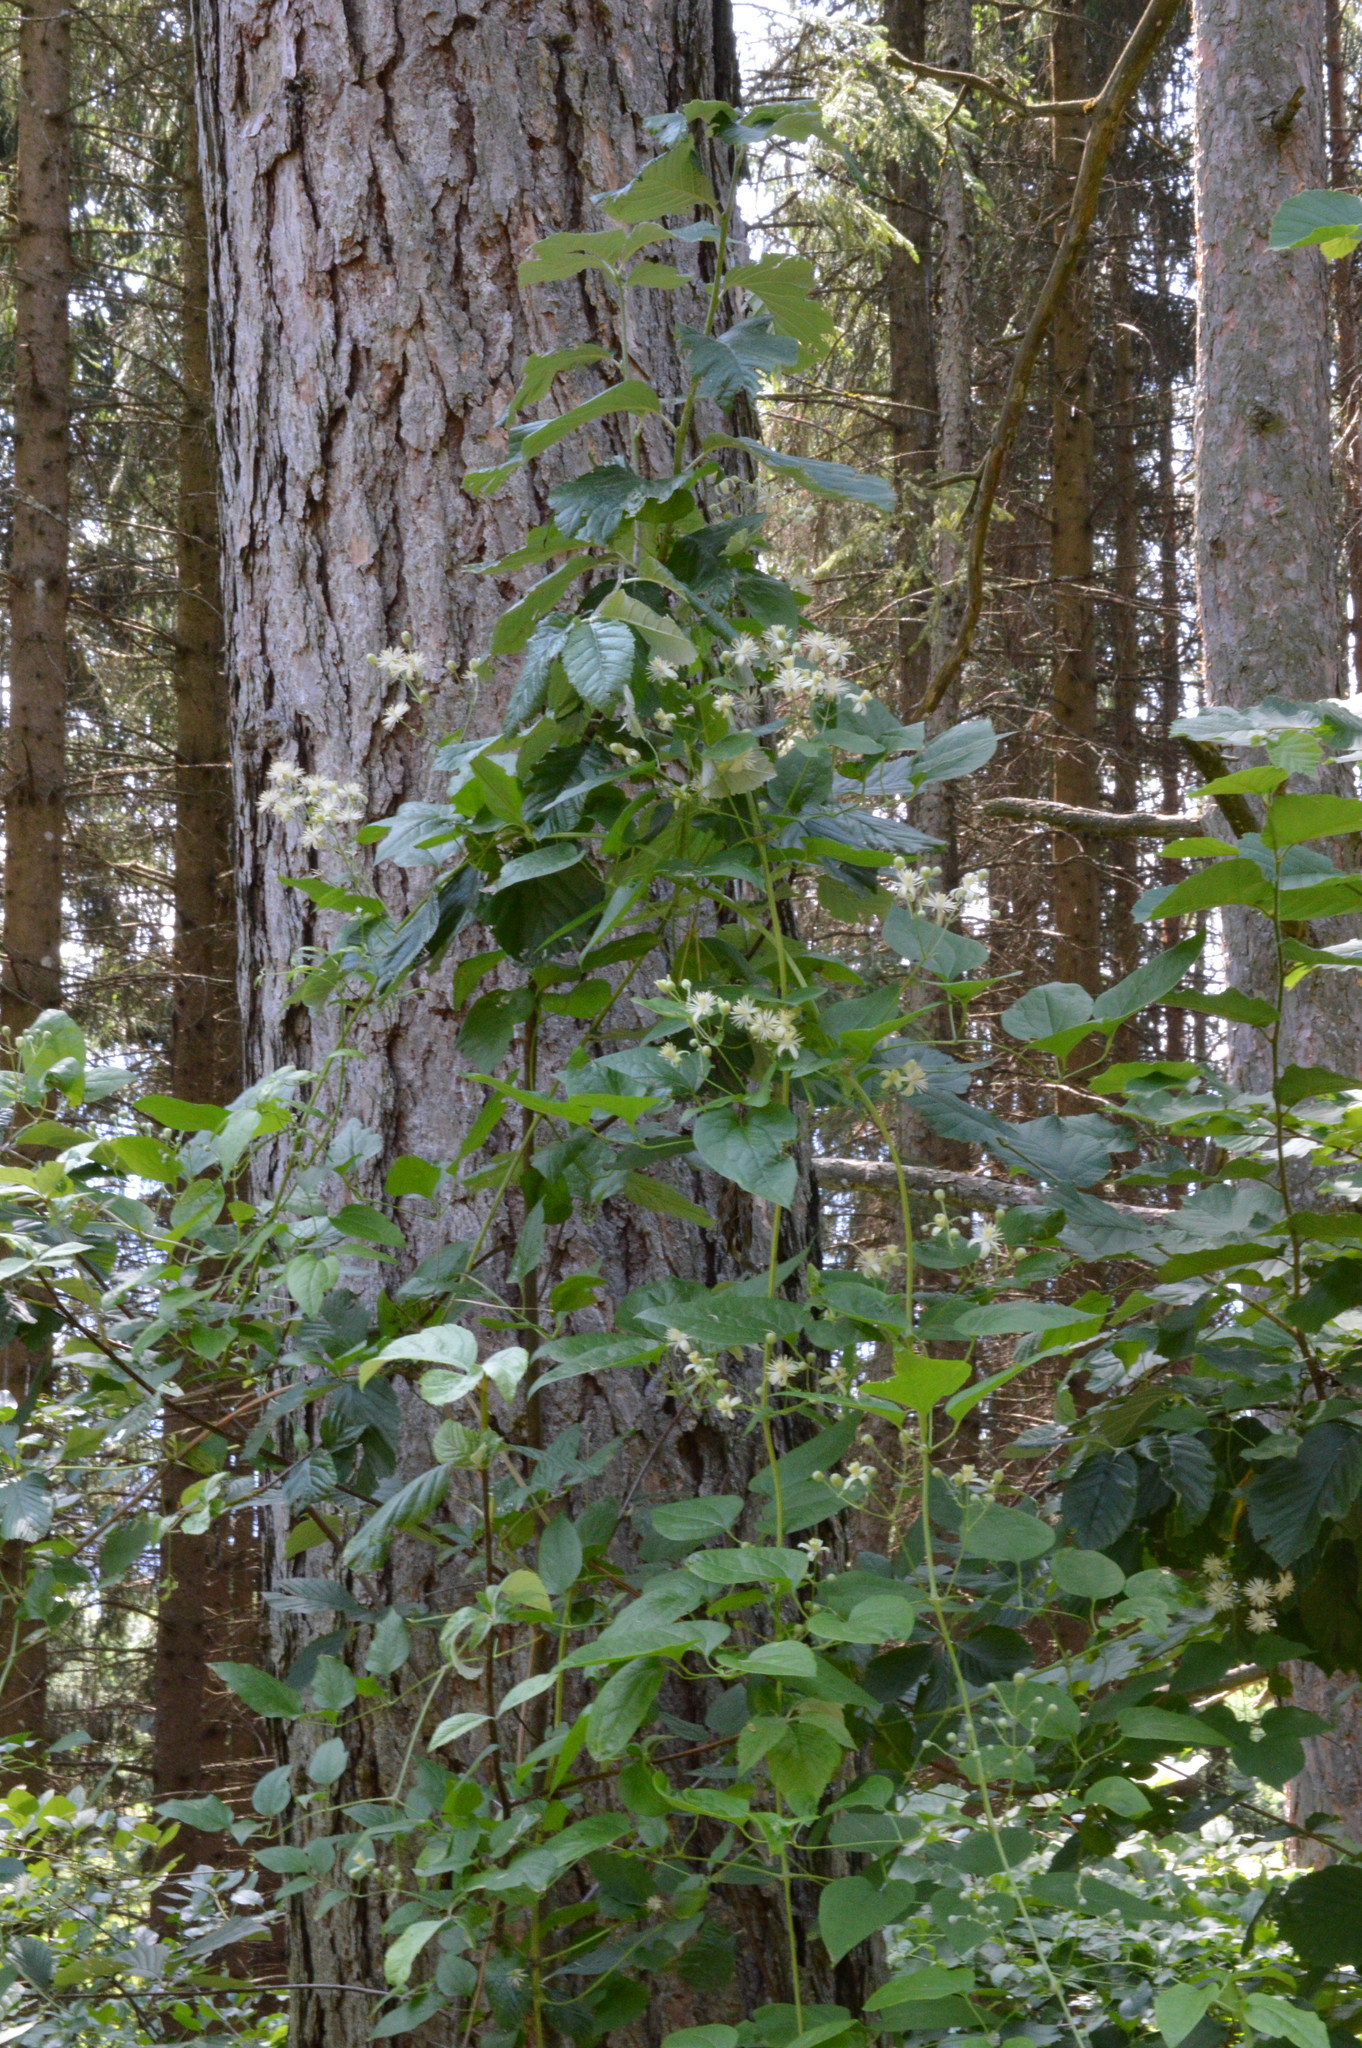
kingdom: Plantae
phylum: Tracheophyta
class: Magnoliopsida
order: Ranunculales
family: Ranunculaceae
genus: Clematis
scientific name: Clematis vitalba
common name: Evergreen clematis
